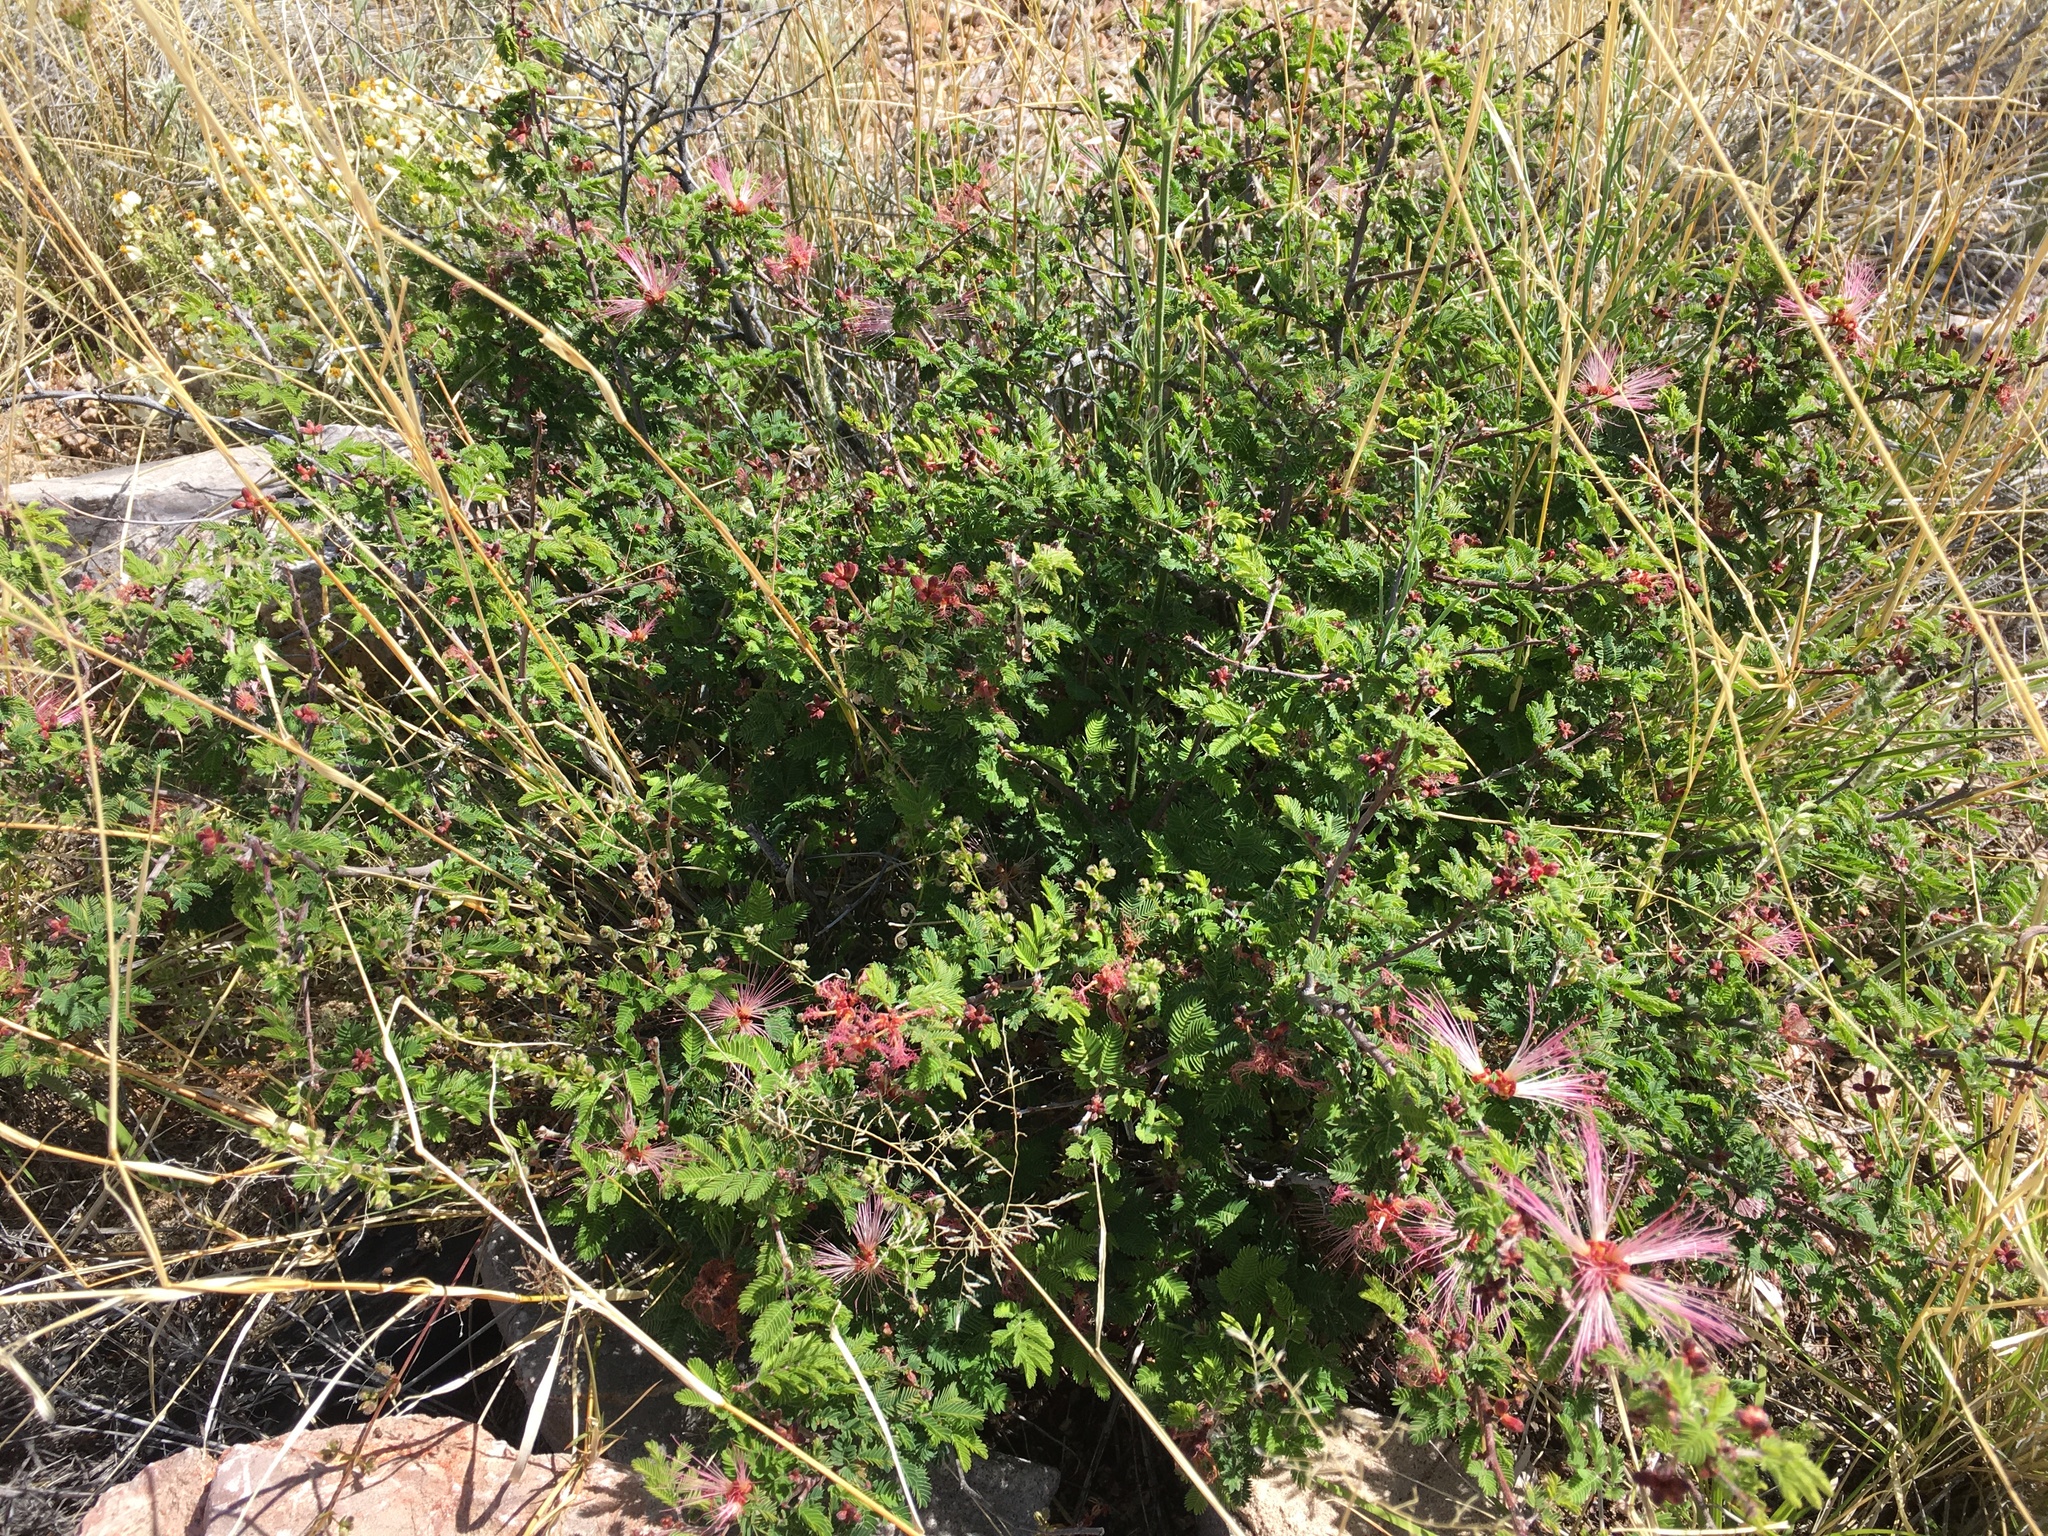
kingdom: Plantae
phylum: Tracheophyta
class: Magnoliopsida
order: Fabales
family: Fabaceae
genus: Calliandra
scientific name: Calliandra eriophylla
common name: Fairy-duster
